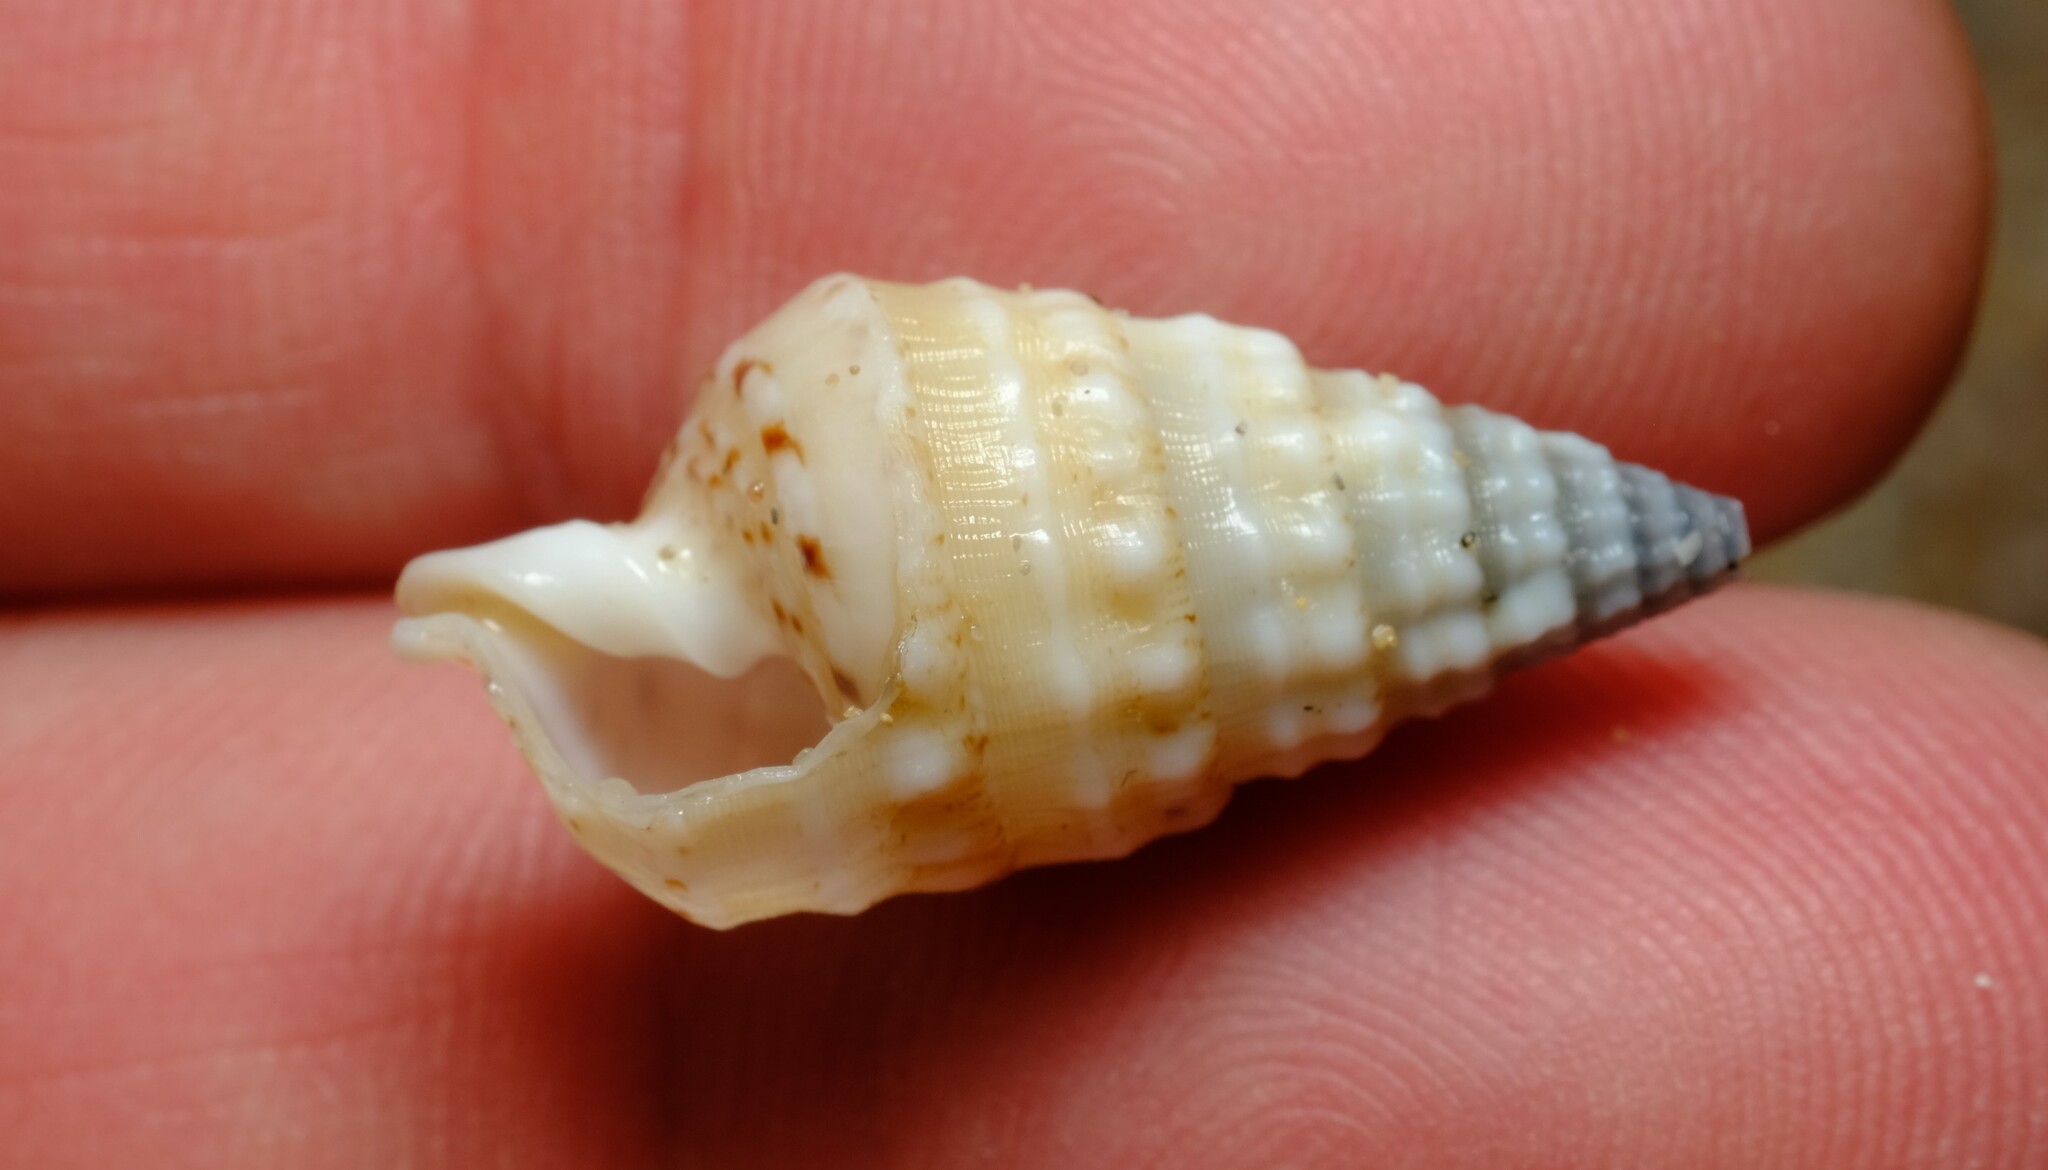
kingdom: Animalia
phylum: Mollusca
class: Gastropoda
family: Cerithiidae
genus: Rhinoclavis
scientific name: Rhinoclavis bituberculata
